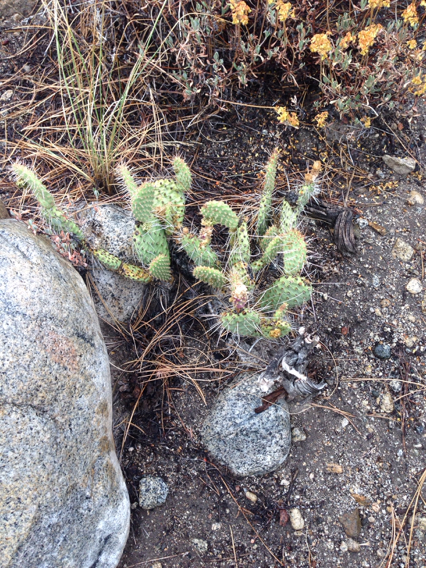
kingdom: Plantae
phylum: Tracheophyta
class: Magnoliopsida
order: Caryophyllales
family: Cactaceae
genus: Opuntia
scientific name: Opuntia polyacantha
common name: Plains prickly-pear
